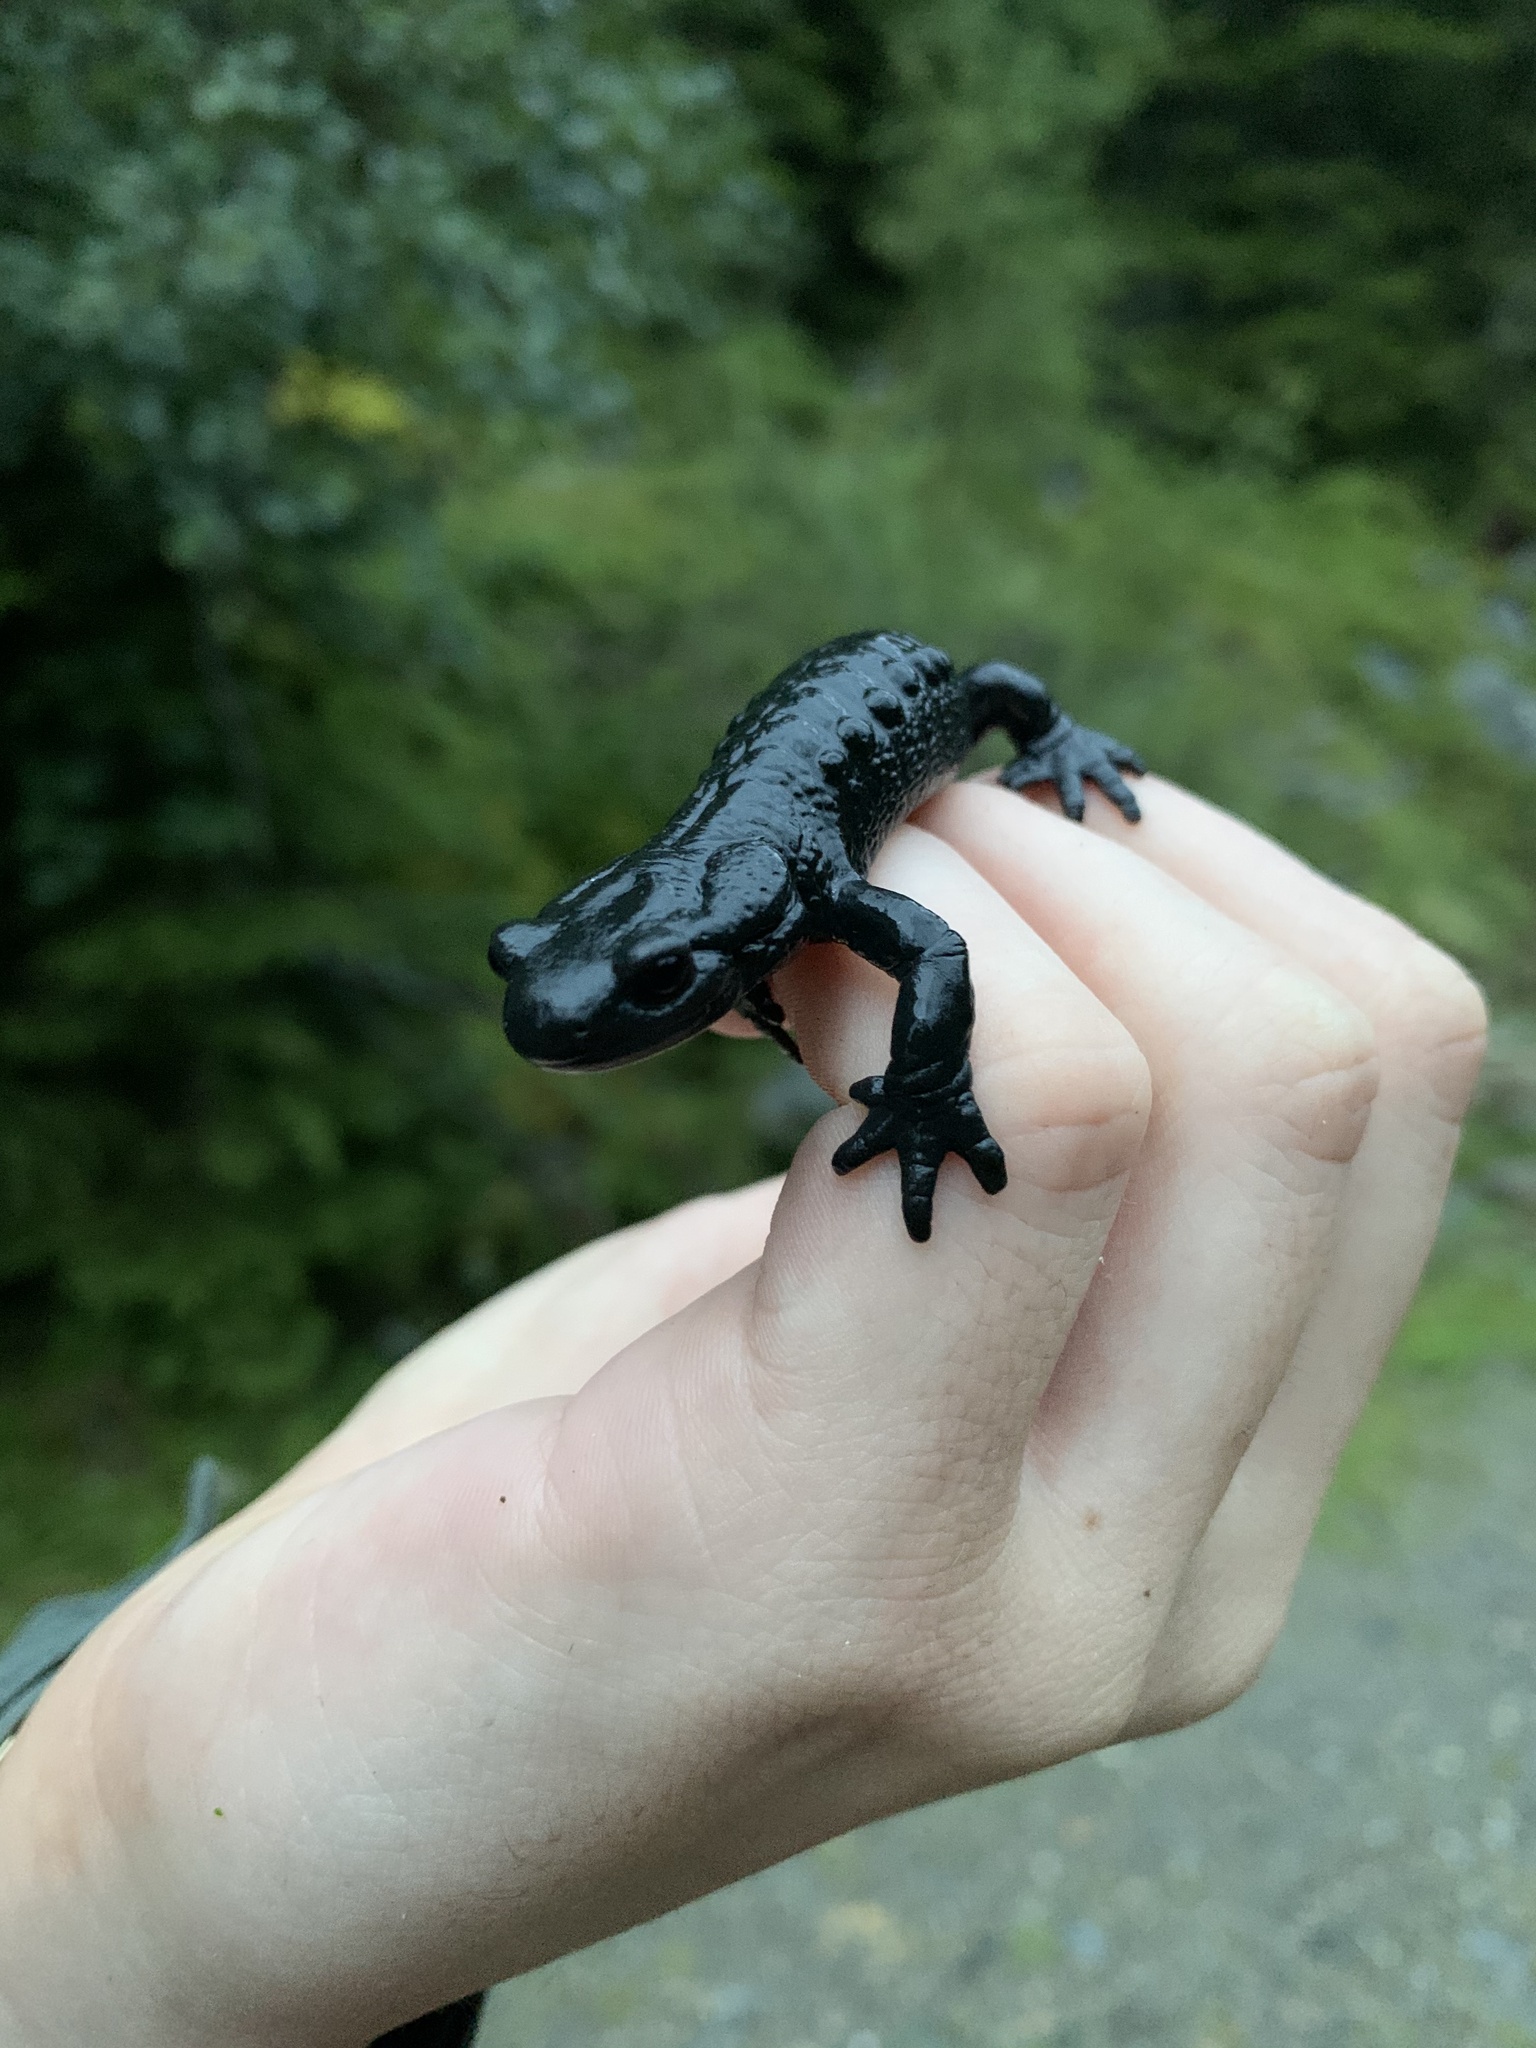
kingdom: Animalia
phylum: Chordata
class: Amphibia
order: Caudata
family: Salamandridae
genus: Salamandra
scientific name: Salamandra atra
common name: Alpine salamander
